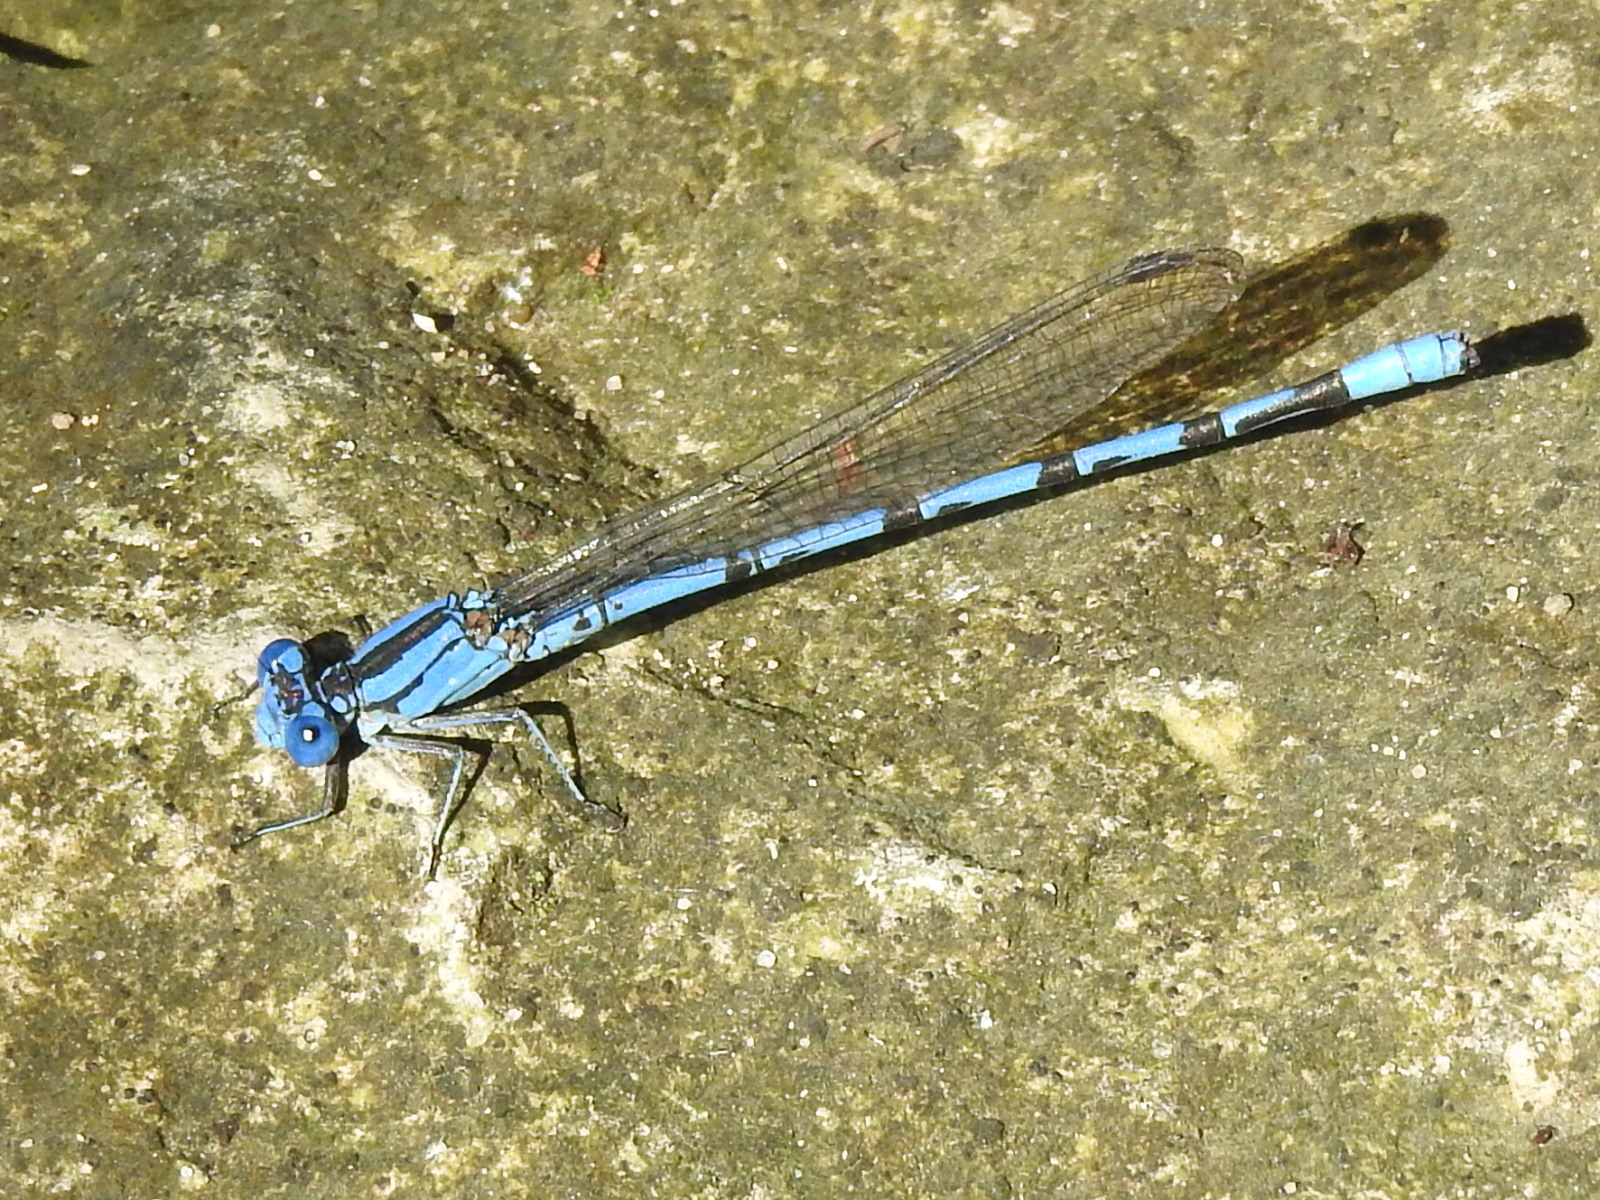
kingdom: Animalia
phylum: Arthropoda
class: Insecta
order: Odonata
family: Coenagrionidae
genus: Argia
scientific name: Argia funebris
